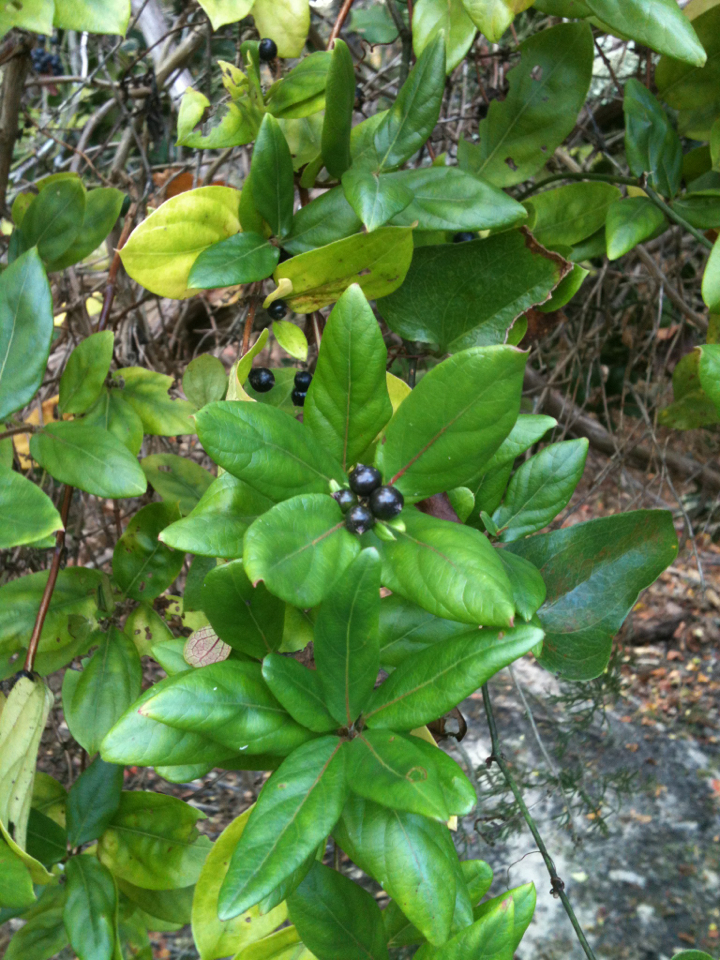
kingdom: Plantae
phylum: Tracheophyta
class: Magnoliopsida
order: Dipsacales
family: Caprifoliaceae
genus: Lonicera
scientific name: Lonicera japonica
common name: Japanese honeysuckle
